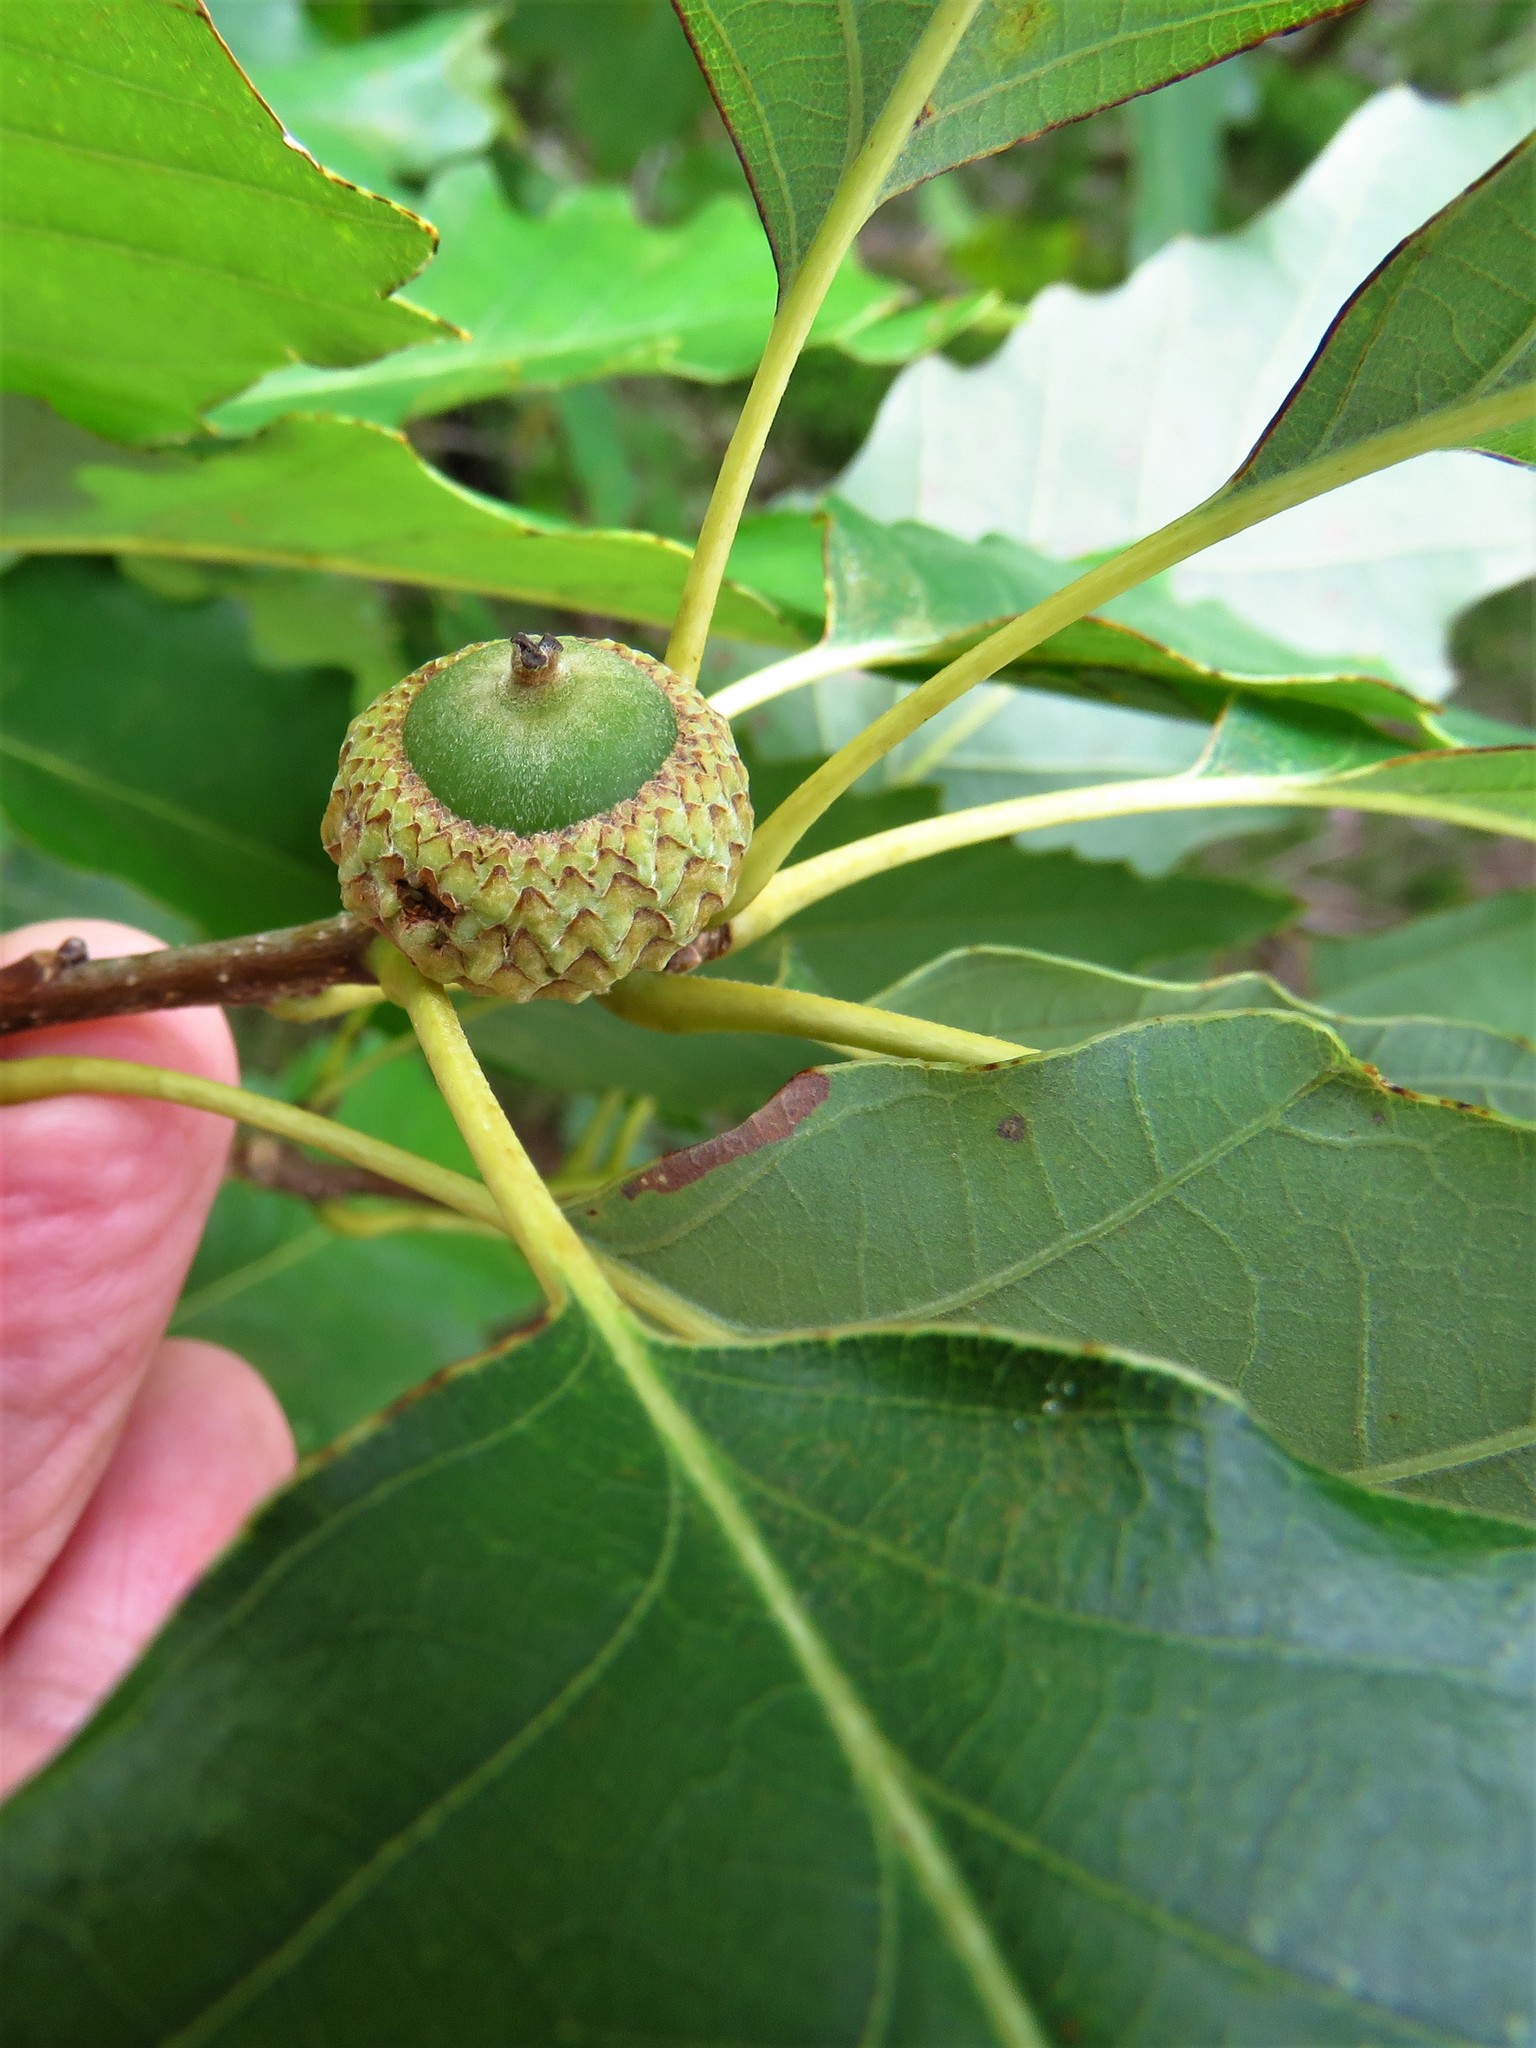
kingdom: Plantae
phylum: Tracheophyta
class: Magnoliopsida
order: Fagales
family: Fagaceae
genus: Quercus
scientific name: Quercus muehlenbergii
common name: Chinkapin oak
